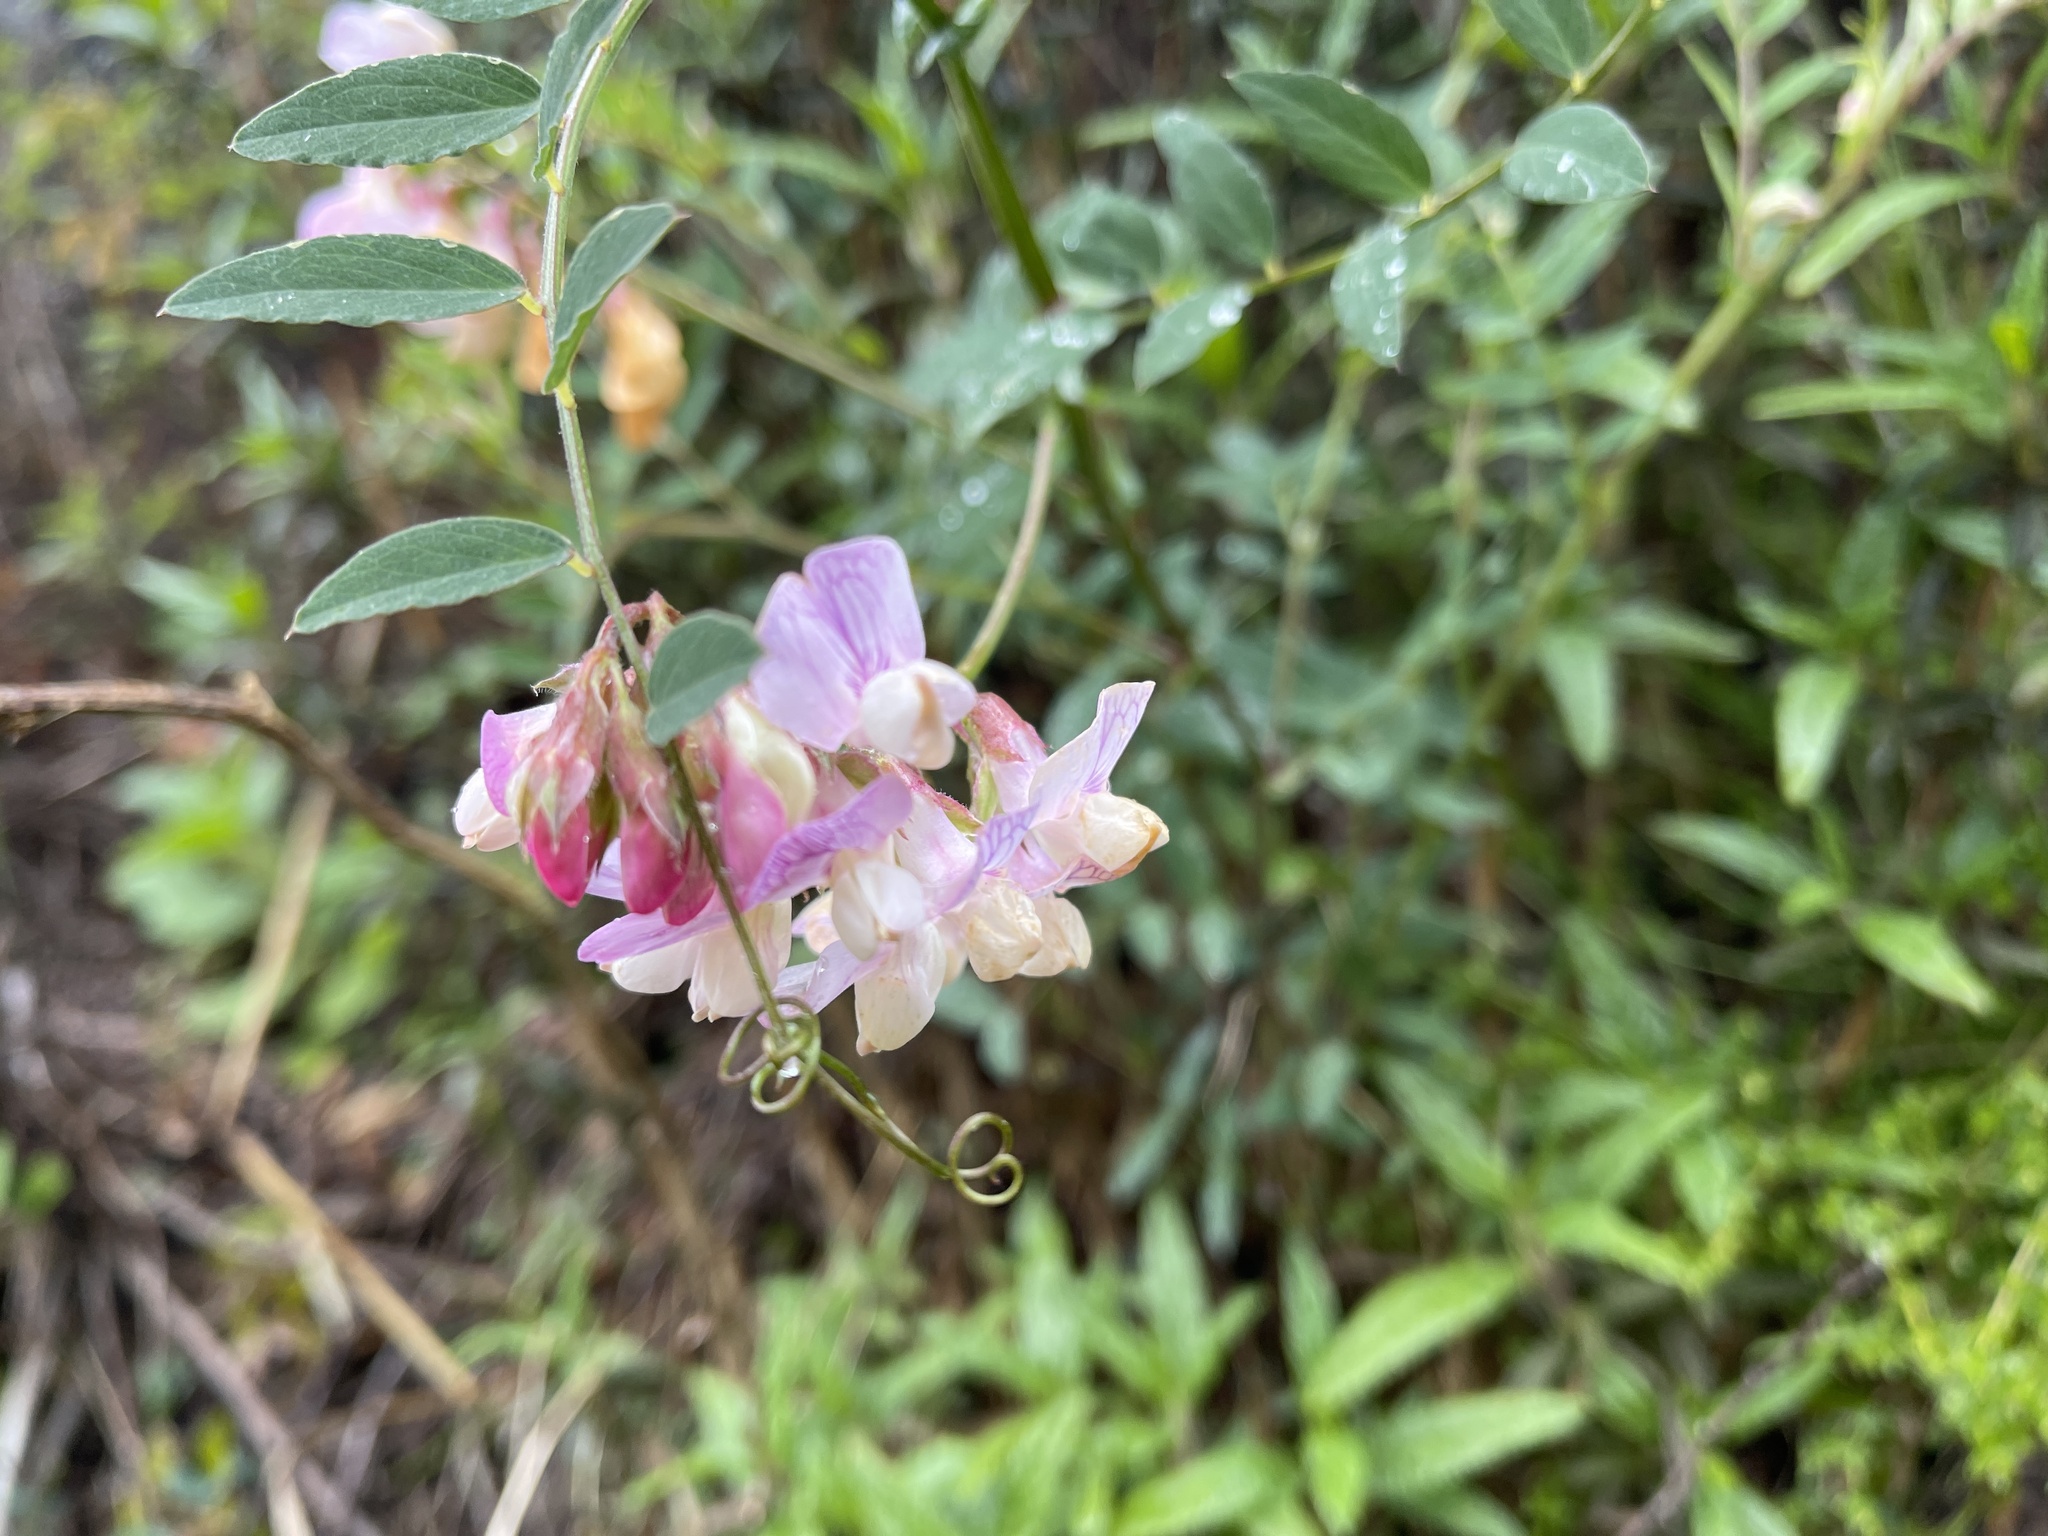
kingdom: Plantae
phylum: Tracheophyta
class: Magnoliopsida
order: Fabales
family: Fabaceae
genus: Lathyrus
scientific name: Lathyrus vestitus
